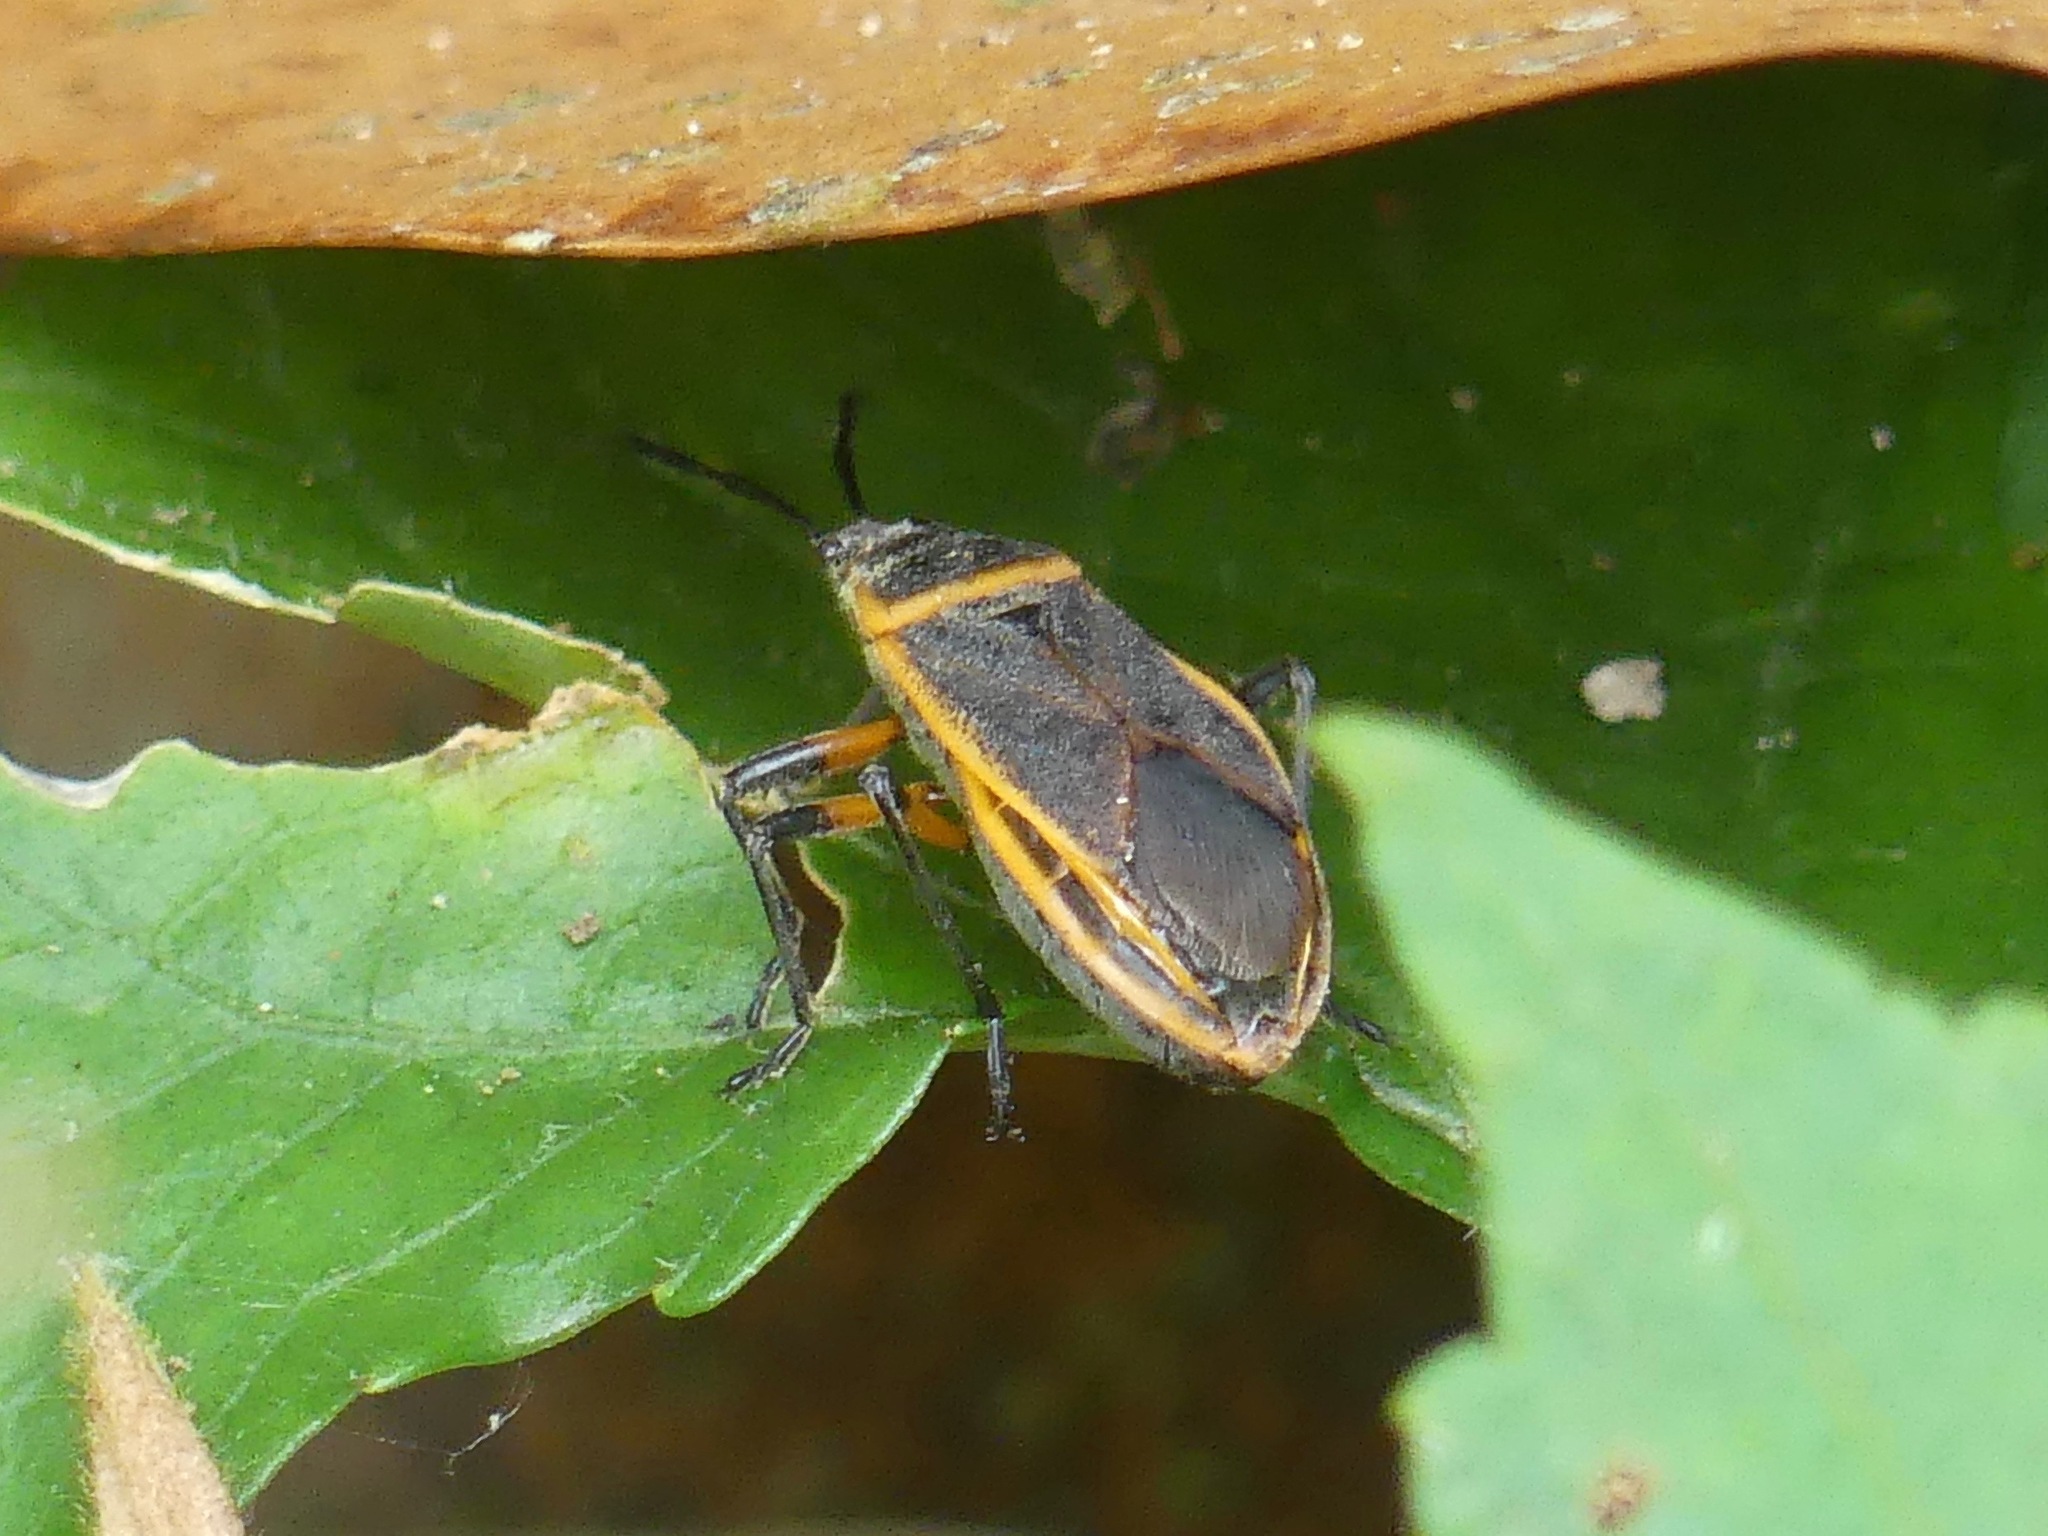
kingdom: Animalia
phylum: Arthropoda
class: Insecta
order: Hemiptera
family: Largidae
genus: Largus
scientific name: Largus succinctus
